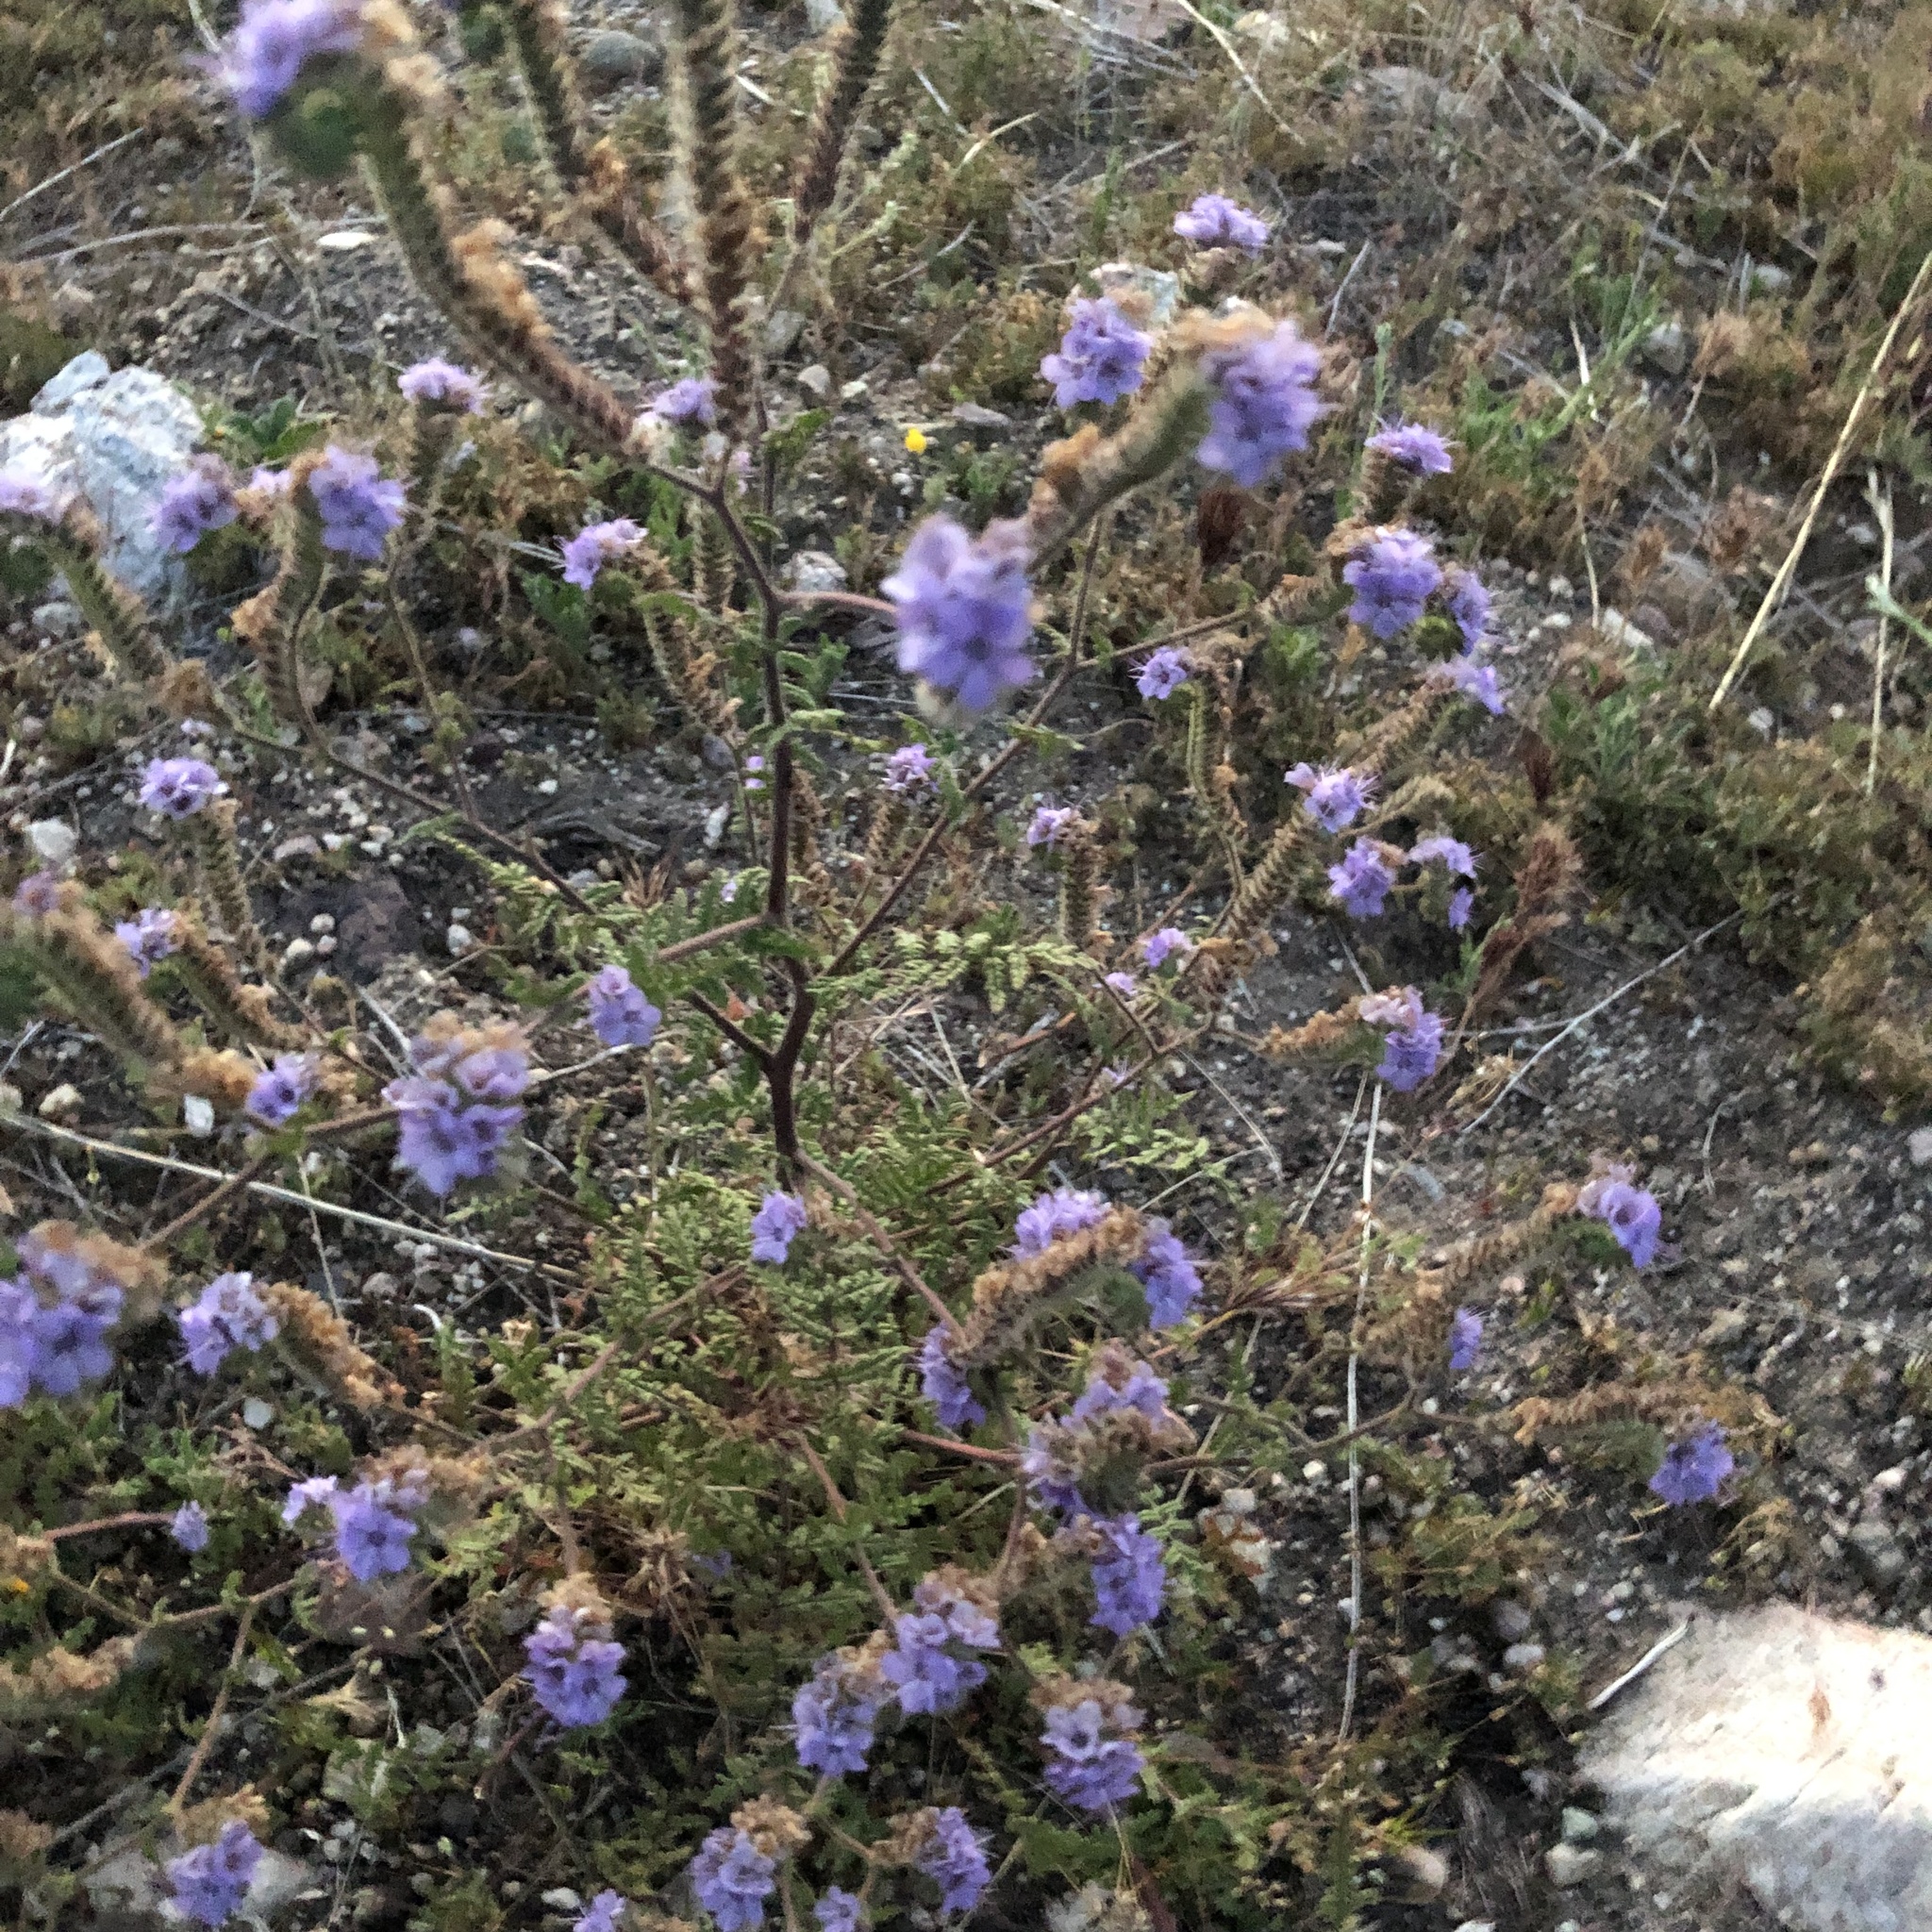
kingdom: Plantae
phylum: Tracheophyta
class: Magnoliopsida
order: Boraginales
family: Hydrophyllaceae
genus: Phacelia
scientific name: Phacelia distans
